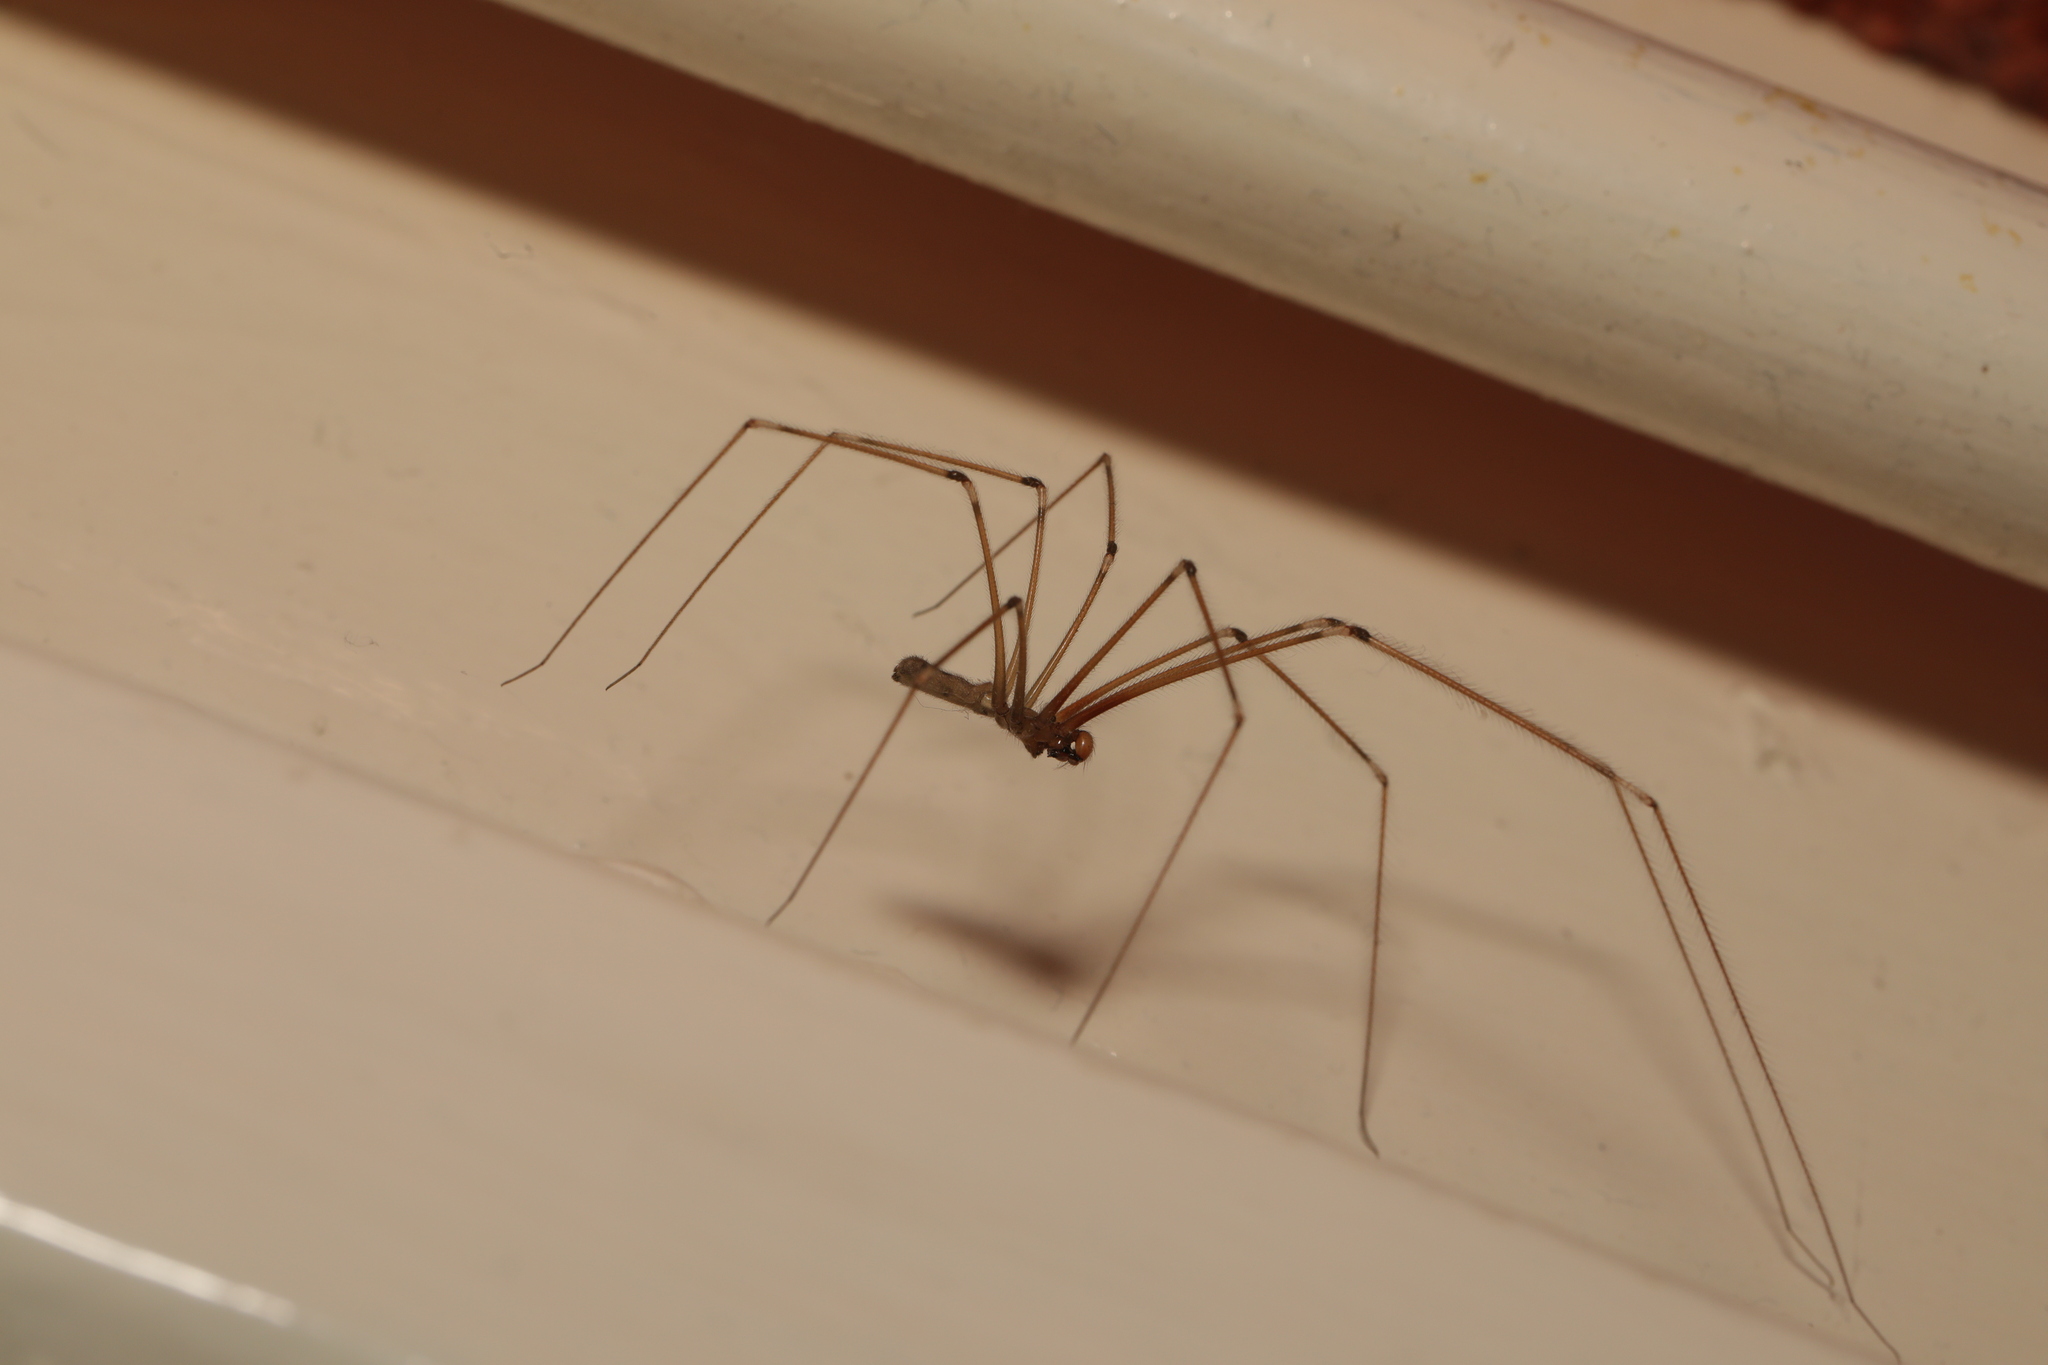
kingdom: Animalia
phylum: Arthropoda
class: Arachnida
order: Araneae
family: Pholcidae
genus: Pholcus
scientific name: Pholcus phalangioides
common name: Longbodied cellar spider
